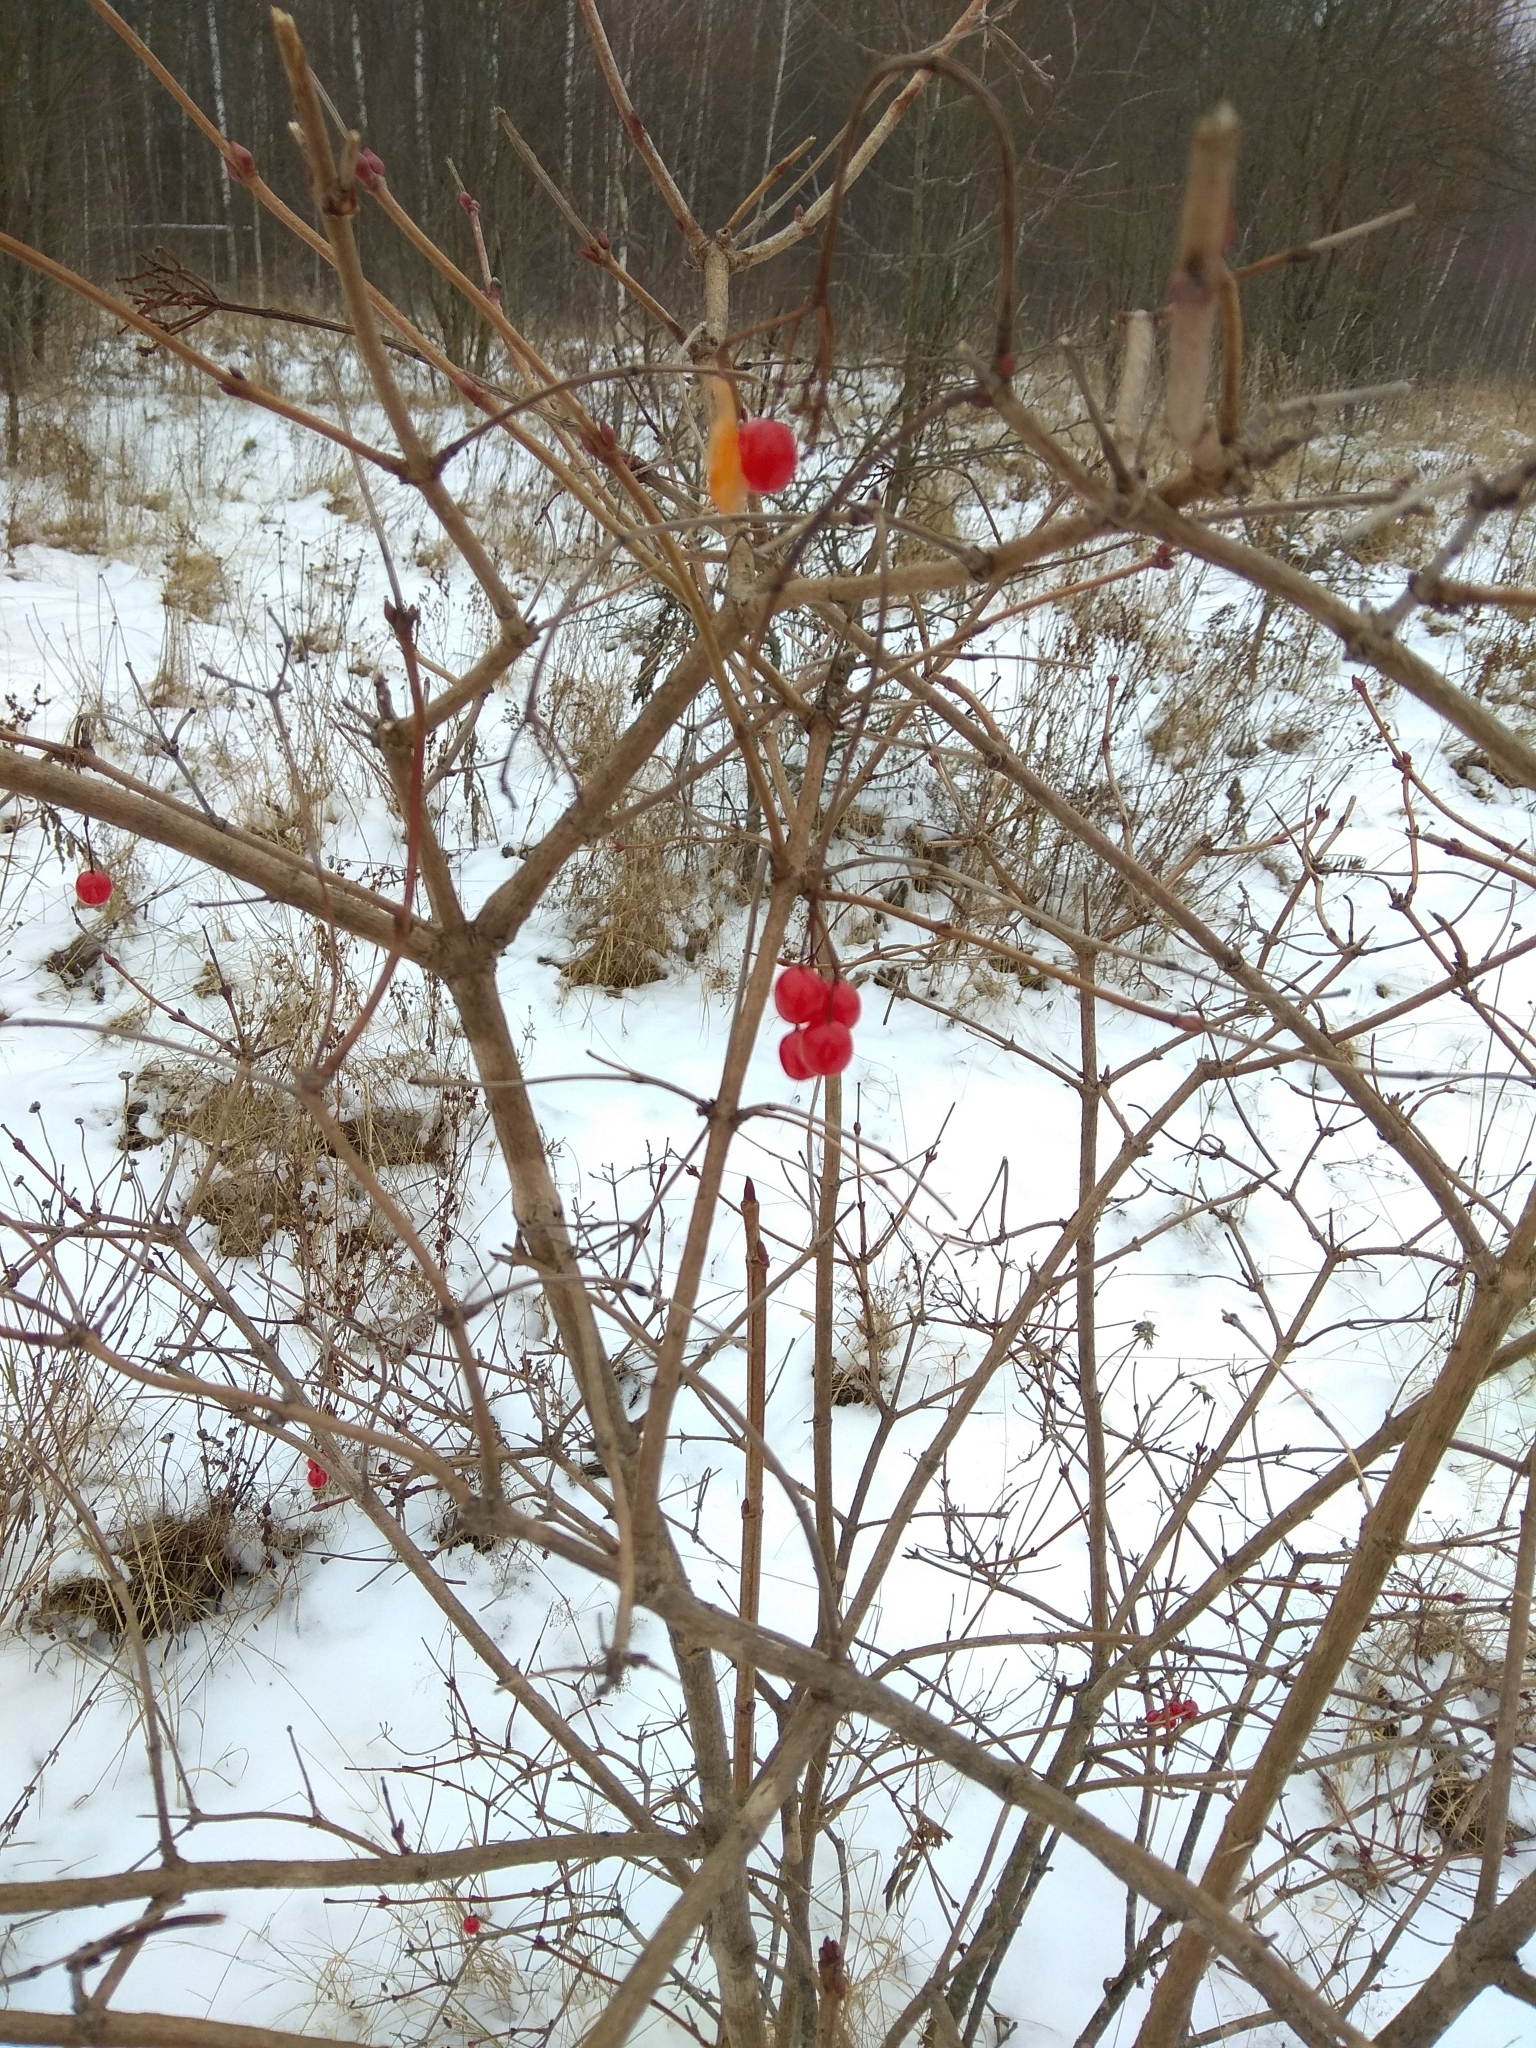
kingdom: Plantae
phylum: Tracheophyta
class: Magnoliopsida
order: Dipsacales
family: Viburnaceae
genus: Viburnum
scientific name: Viburnum opulus
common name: Guelder-rose
